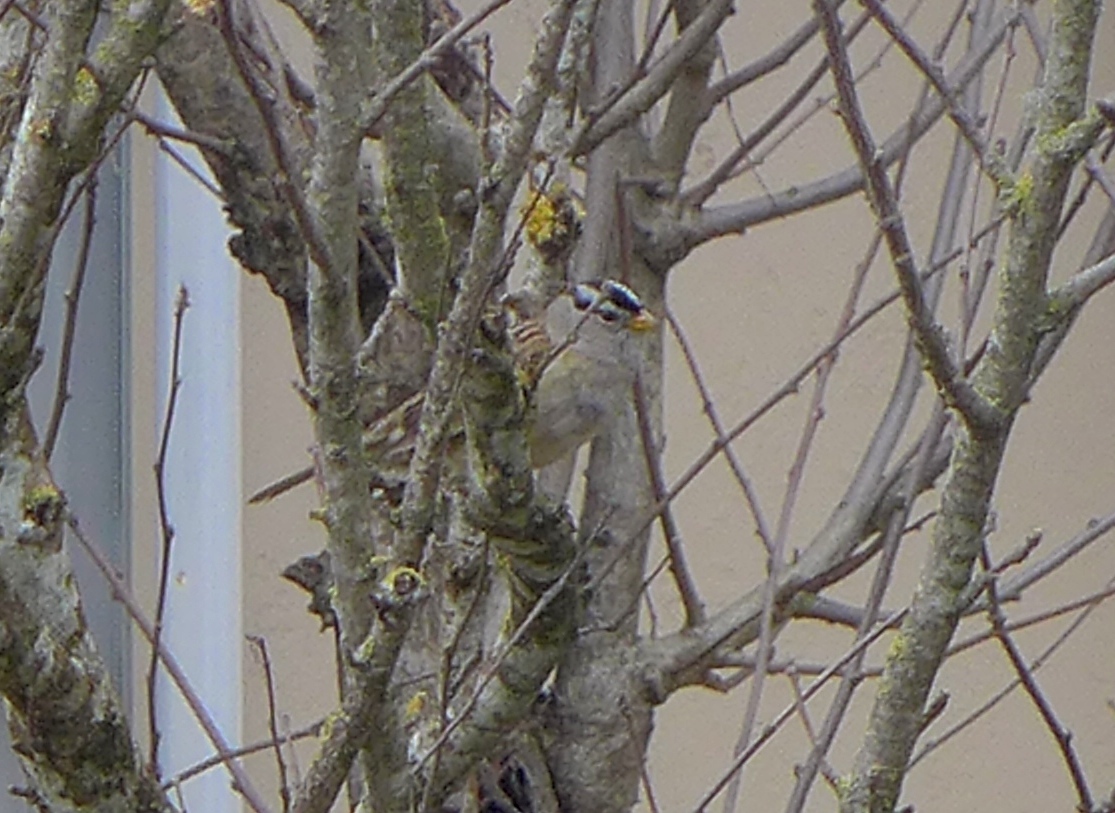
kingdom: Animalia
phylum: Chordata
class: Aves
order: Passeriformes
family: Passerellidae
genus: Zonotrichia
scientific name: Zonotrichia leucophrys
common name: White-crowned sparrow
